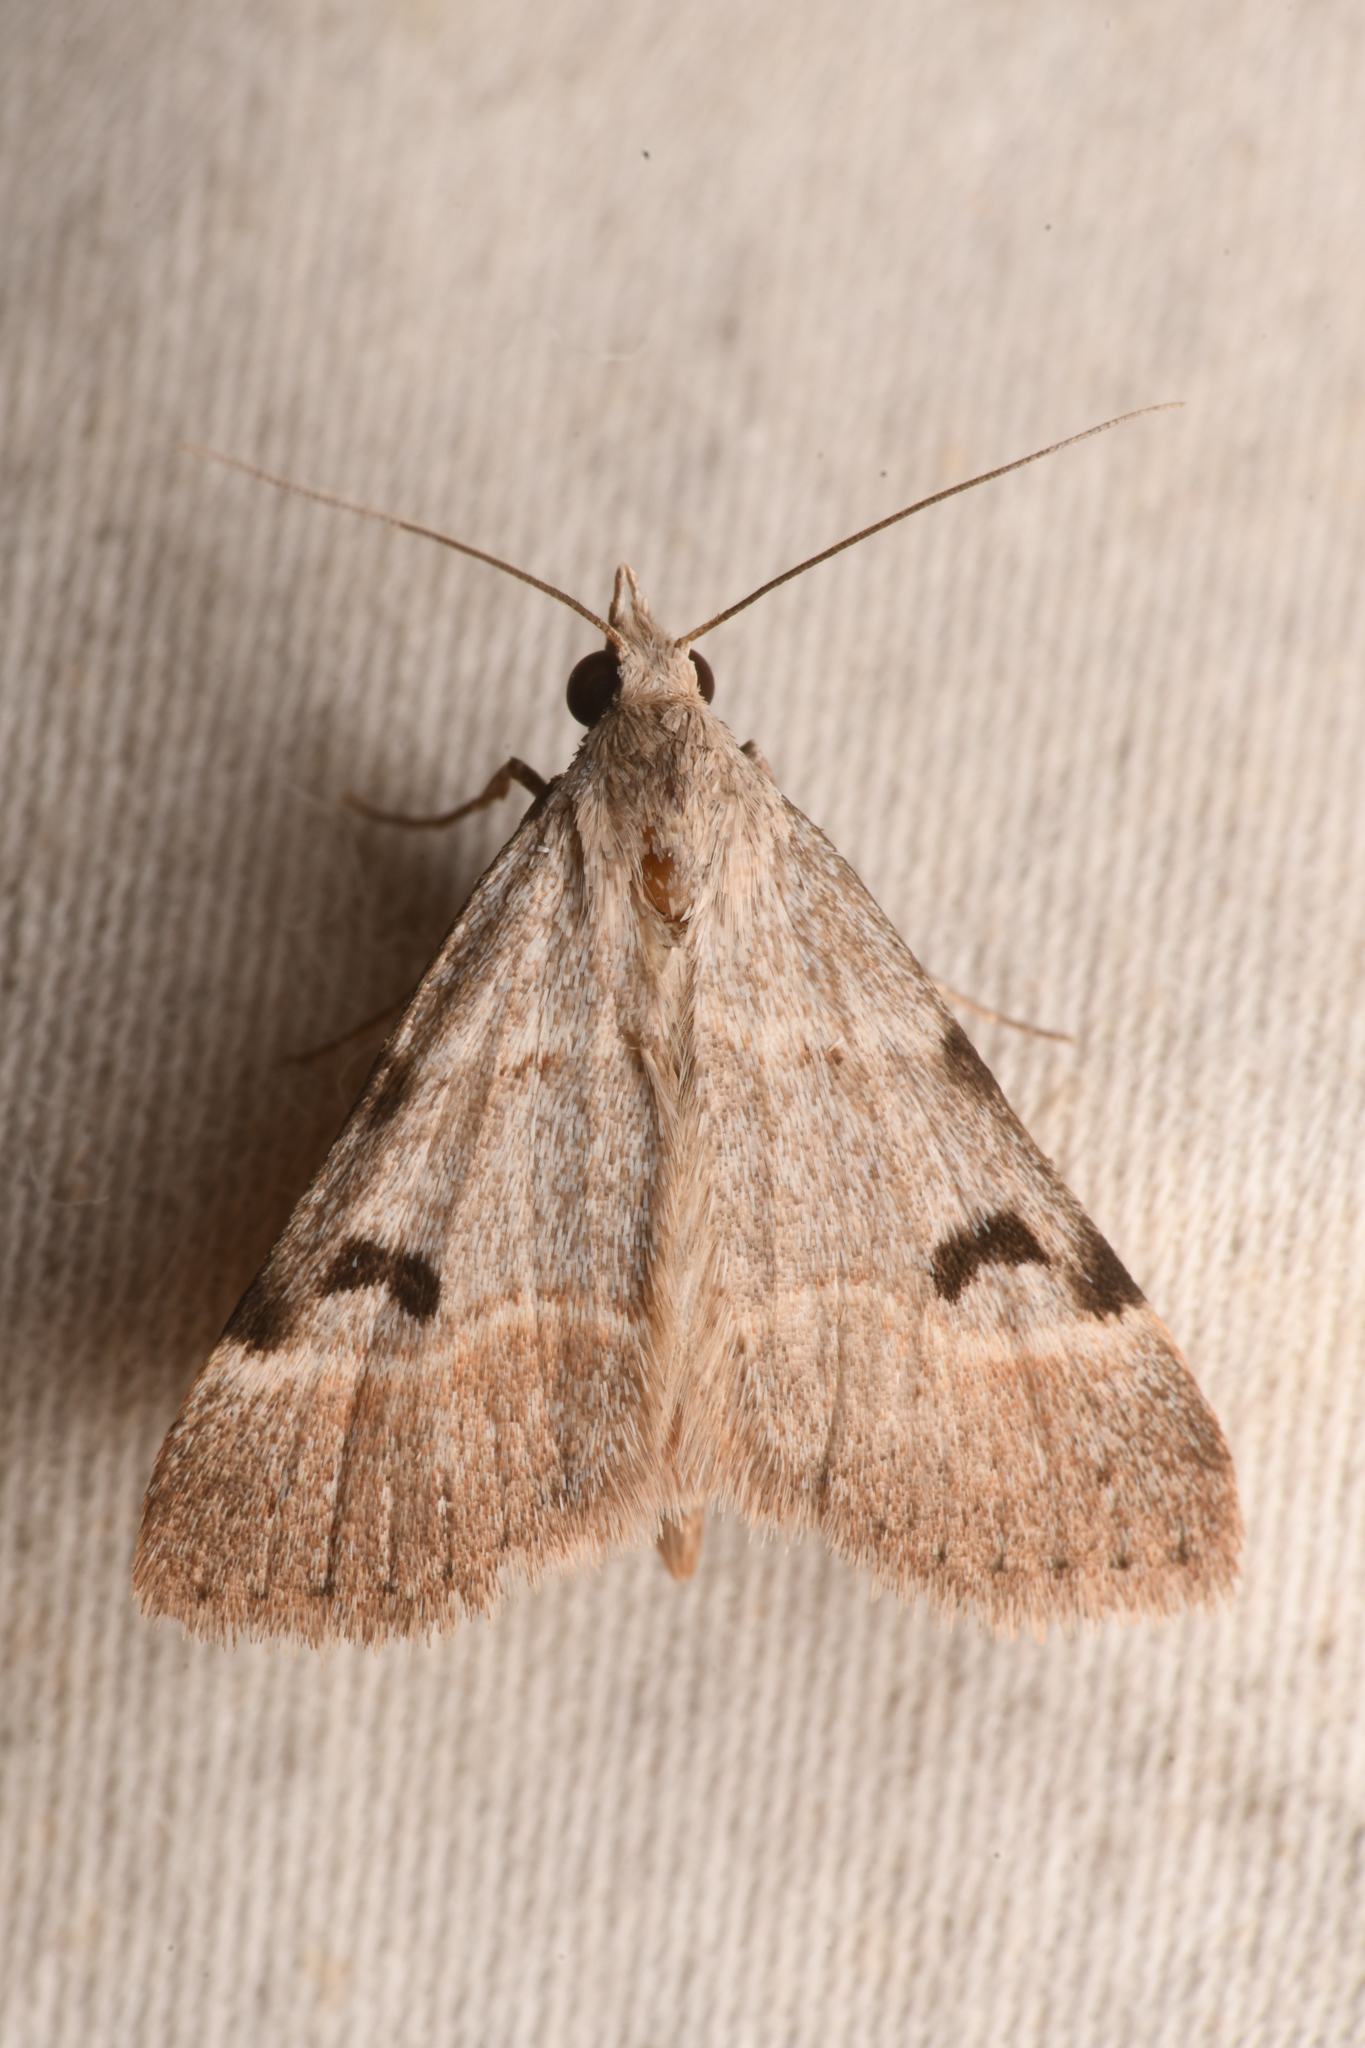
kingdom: Animalia
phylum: Arthropoda
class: Insecta
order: Lepidoptera
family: Erebidae
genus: Hemeroplanis
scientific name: Hemeroplanis historialis
